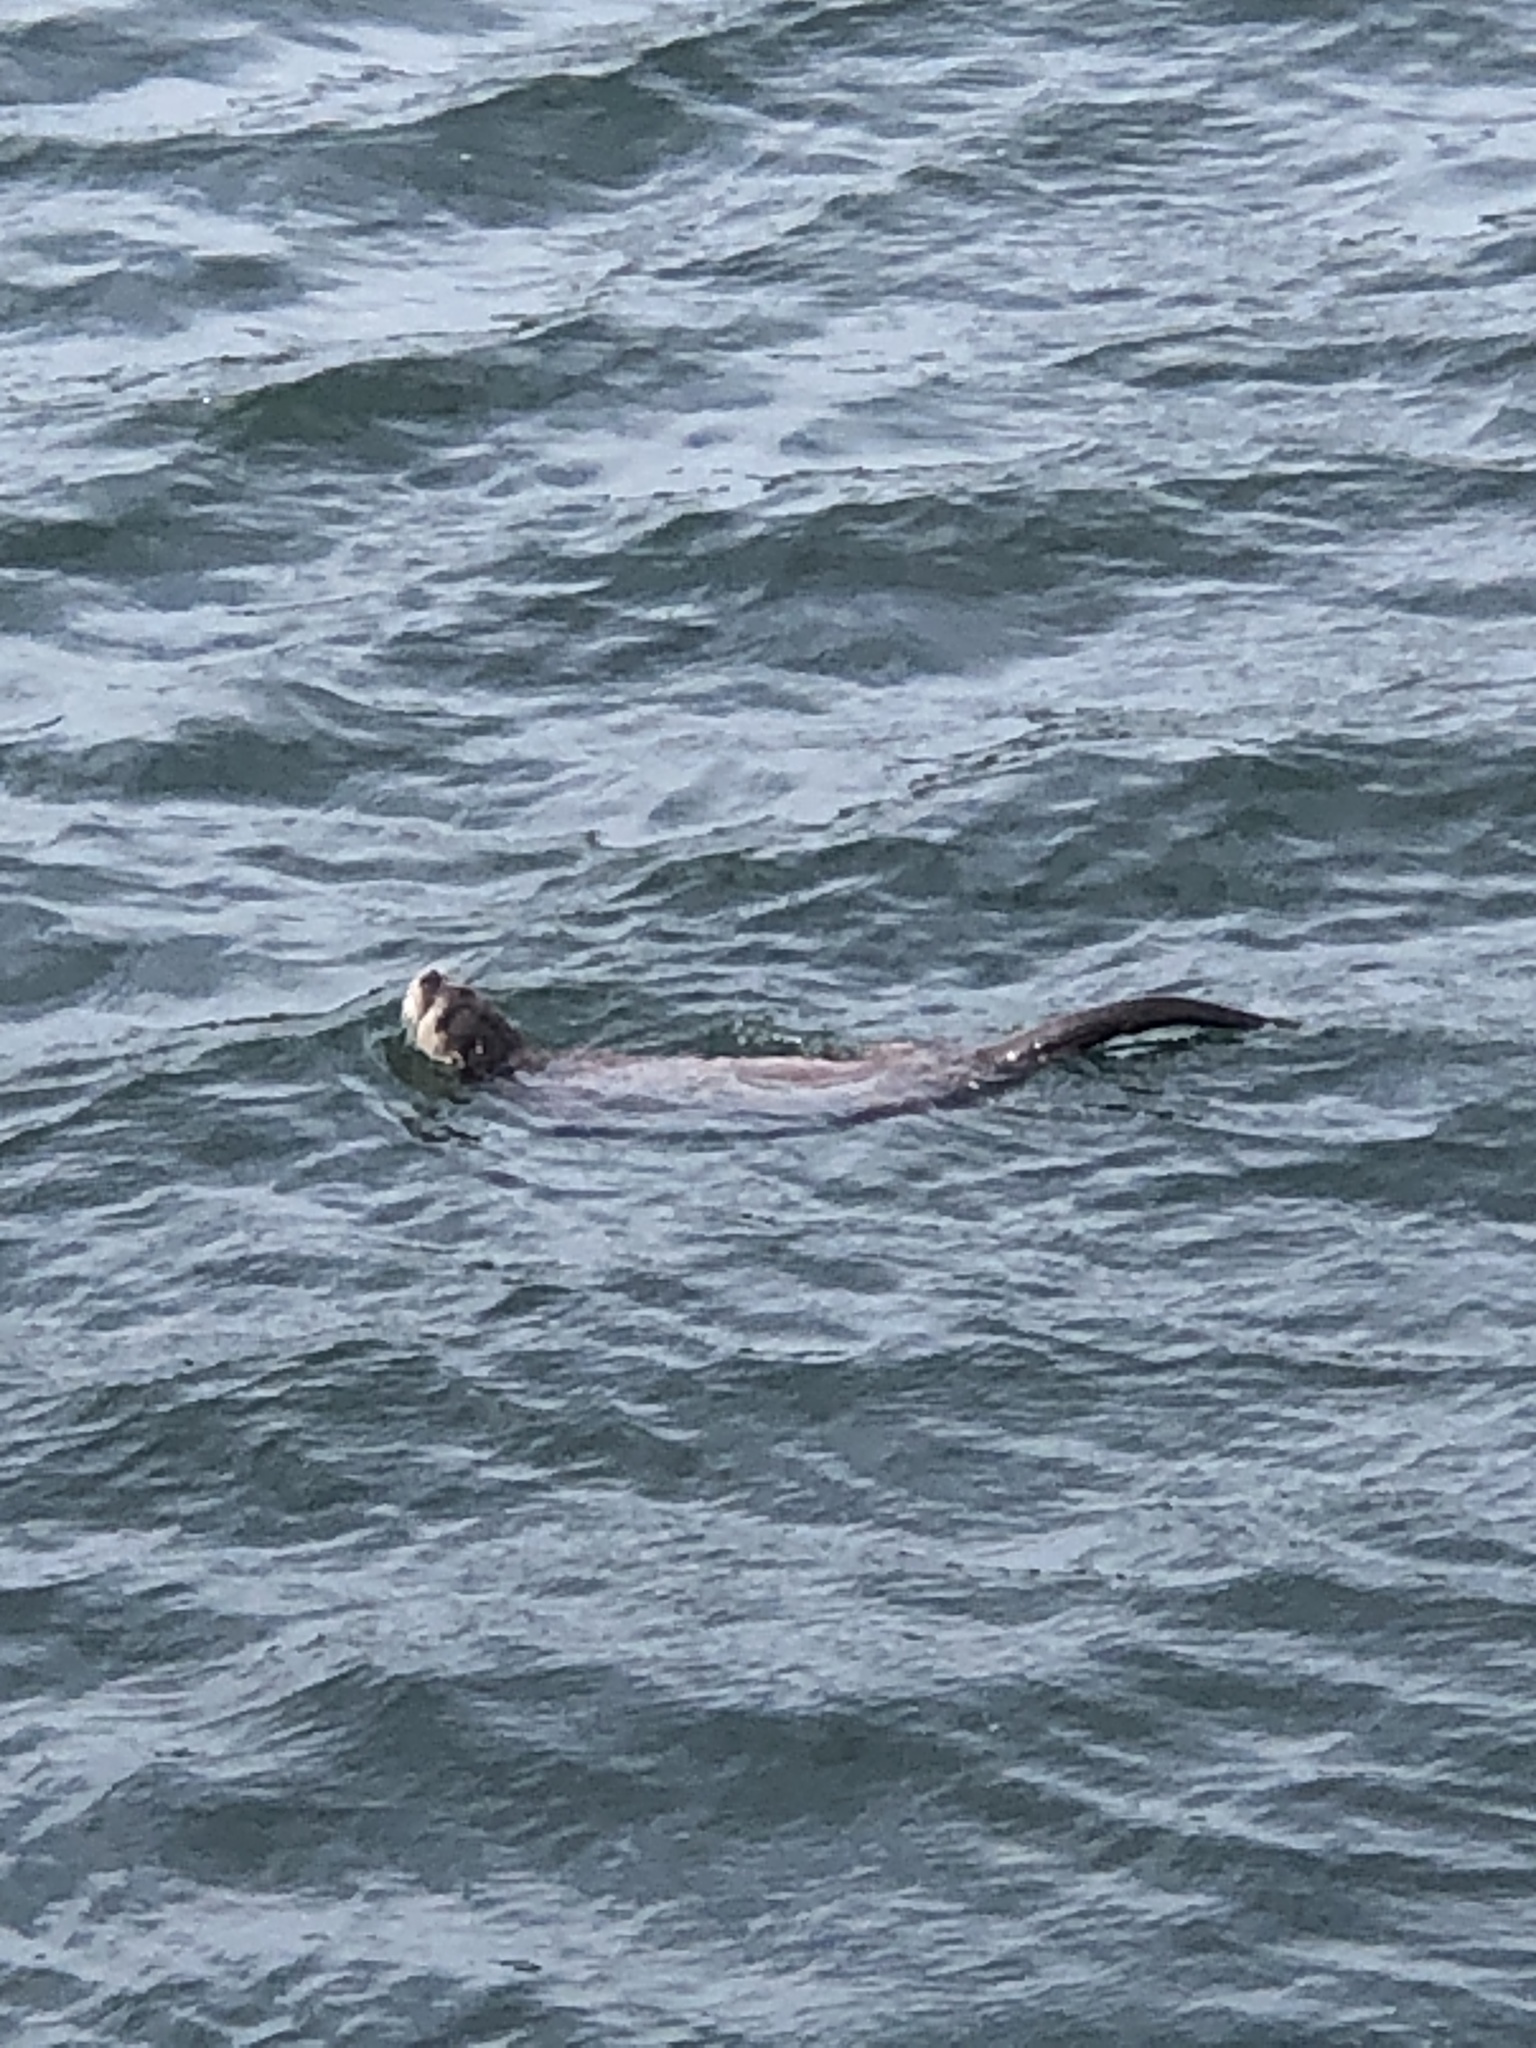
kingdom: Animalia
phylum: Chordata
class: Mammalia
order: Carnivora
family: Mustelidae
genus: Lontra
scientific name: Lontra canadensis
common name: North american river otter
